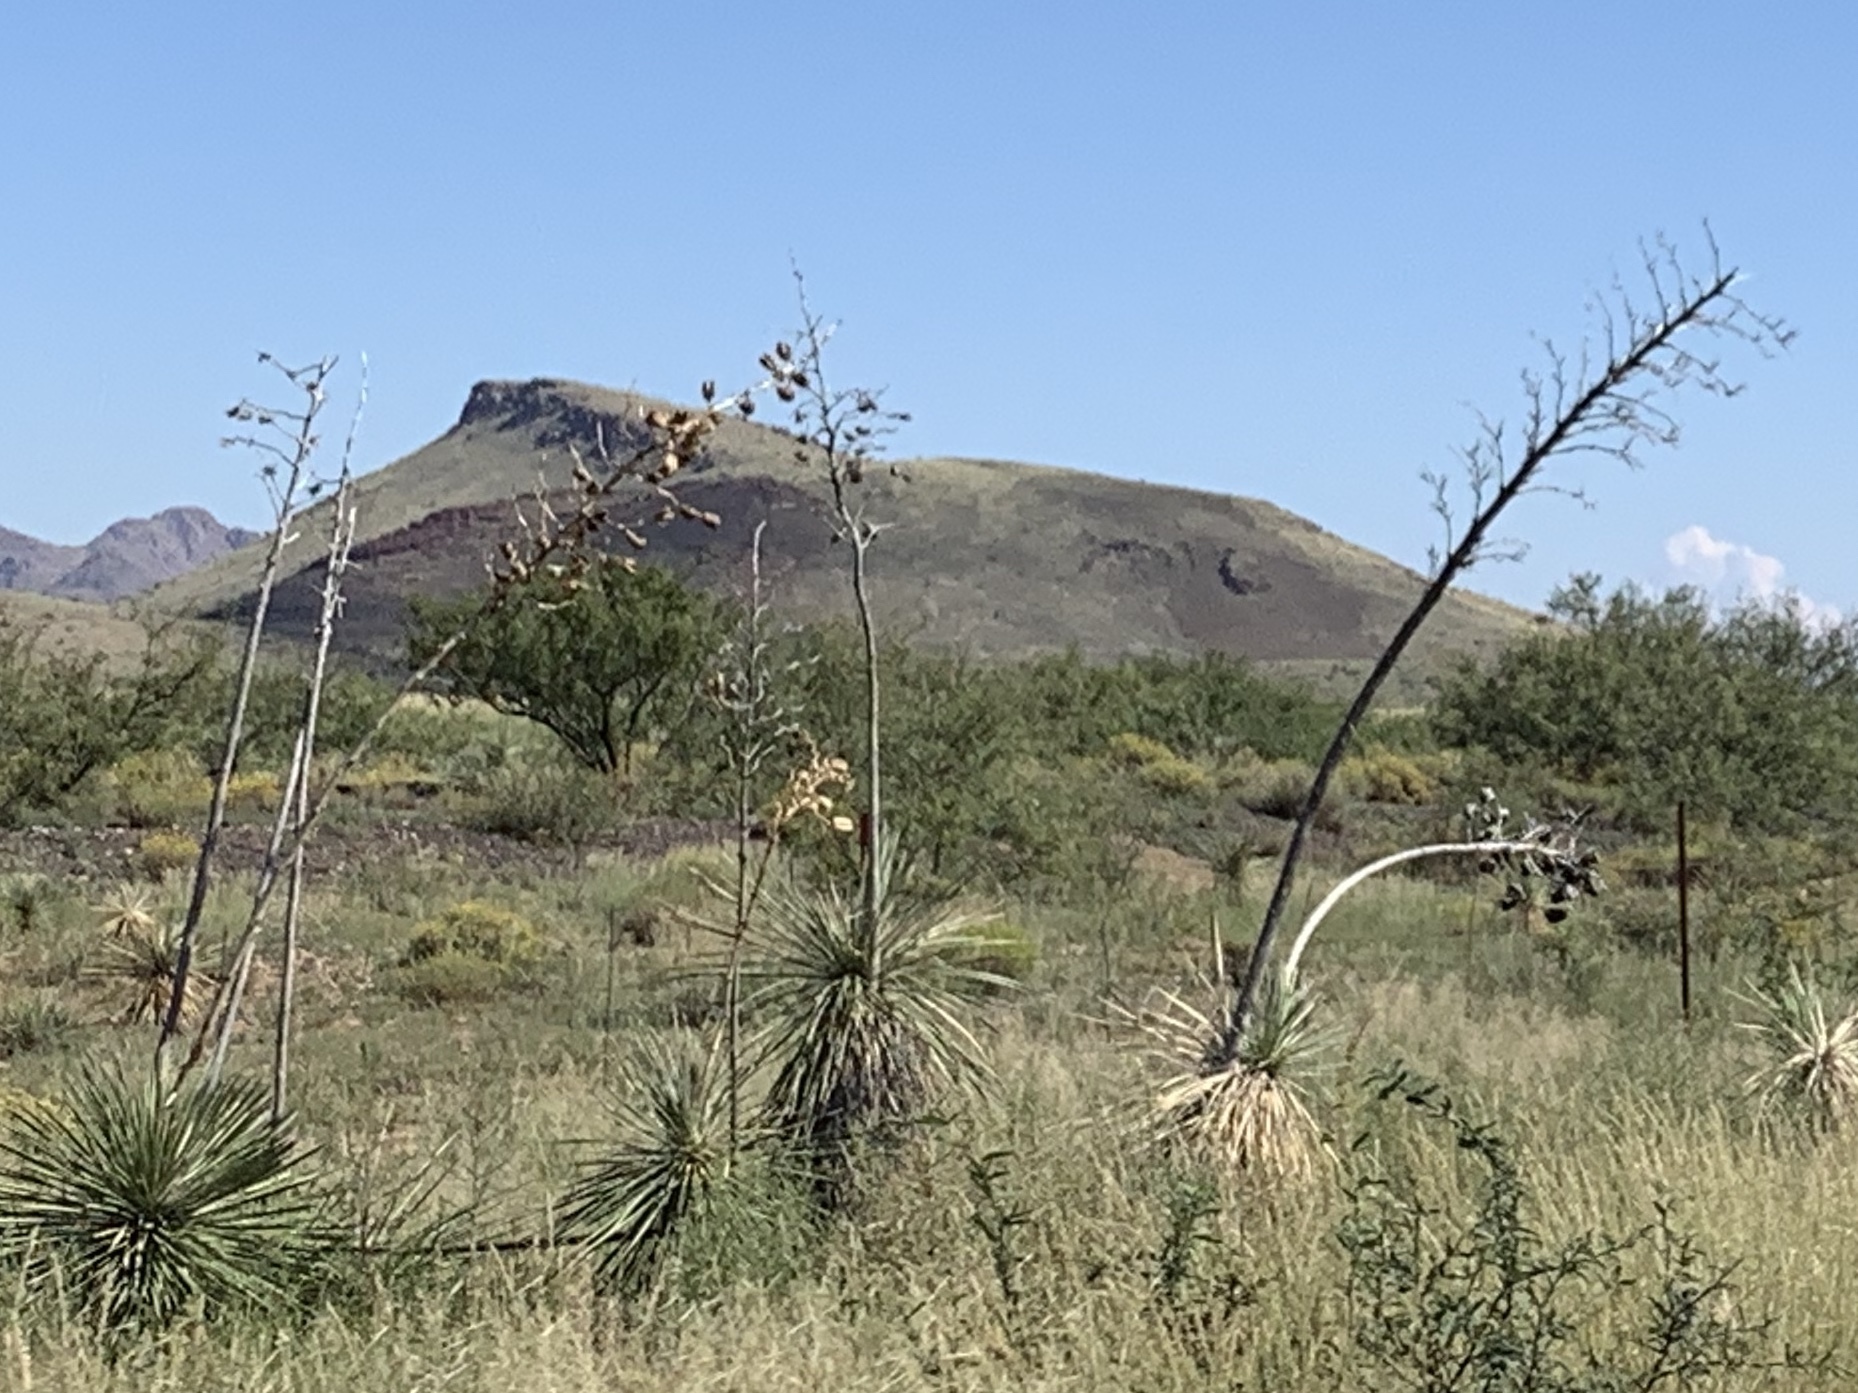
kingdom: Plantae
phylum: Tracheophyta
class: Liliopsida
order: Asparagales
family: Asparagaceae
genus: Yucca
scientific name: Yucca elata
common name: Palmella
